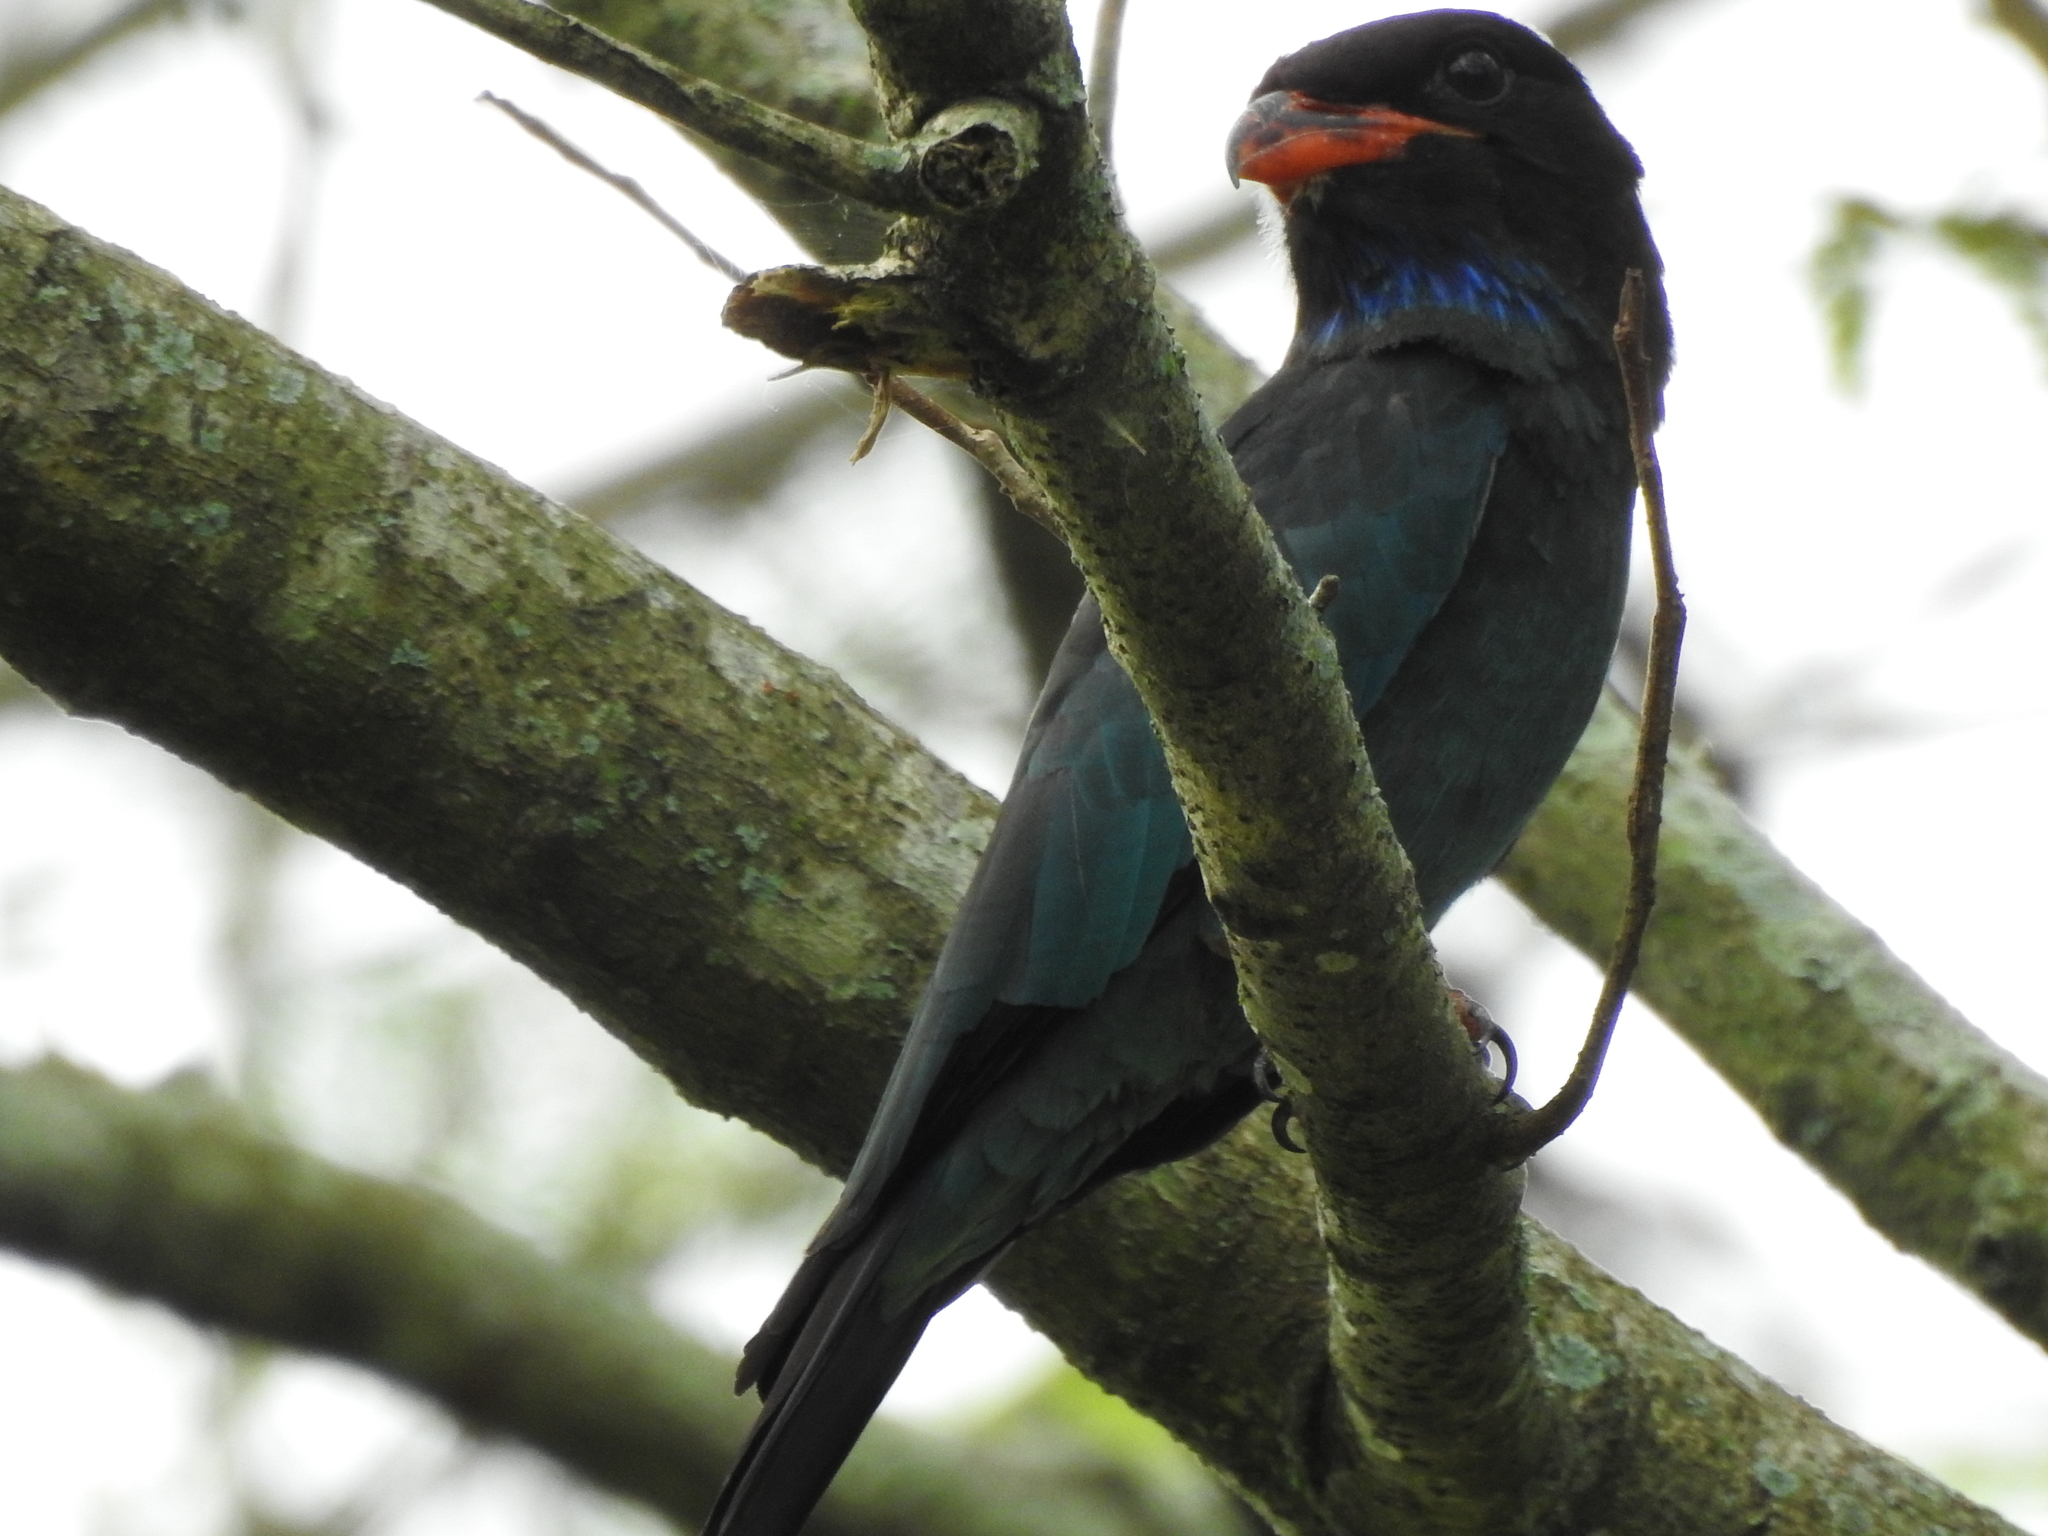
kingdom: Animalia
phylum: Chordata
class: Aves
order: Coraciiformes
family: Coraciidae
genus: Eurystomus
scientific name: Eurystomus orientalis
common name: Oriental dollarbird
